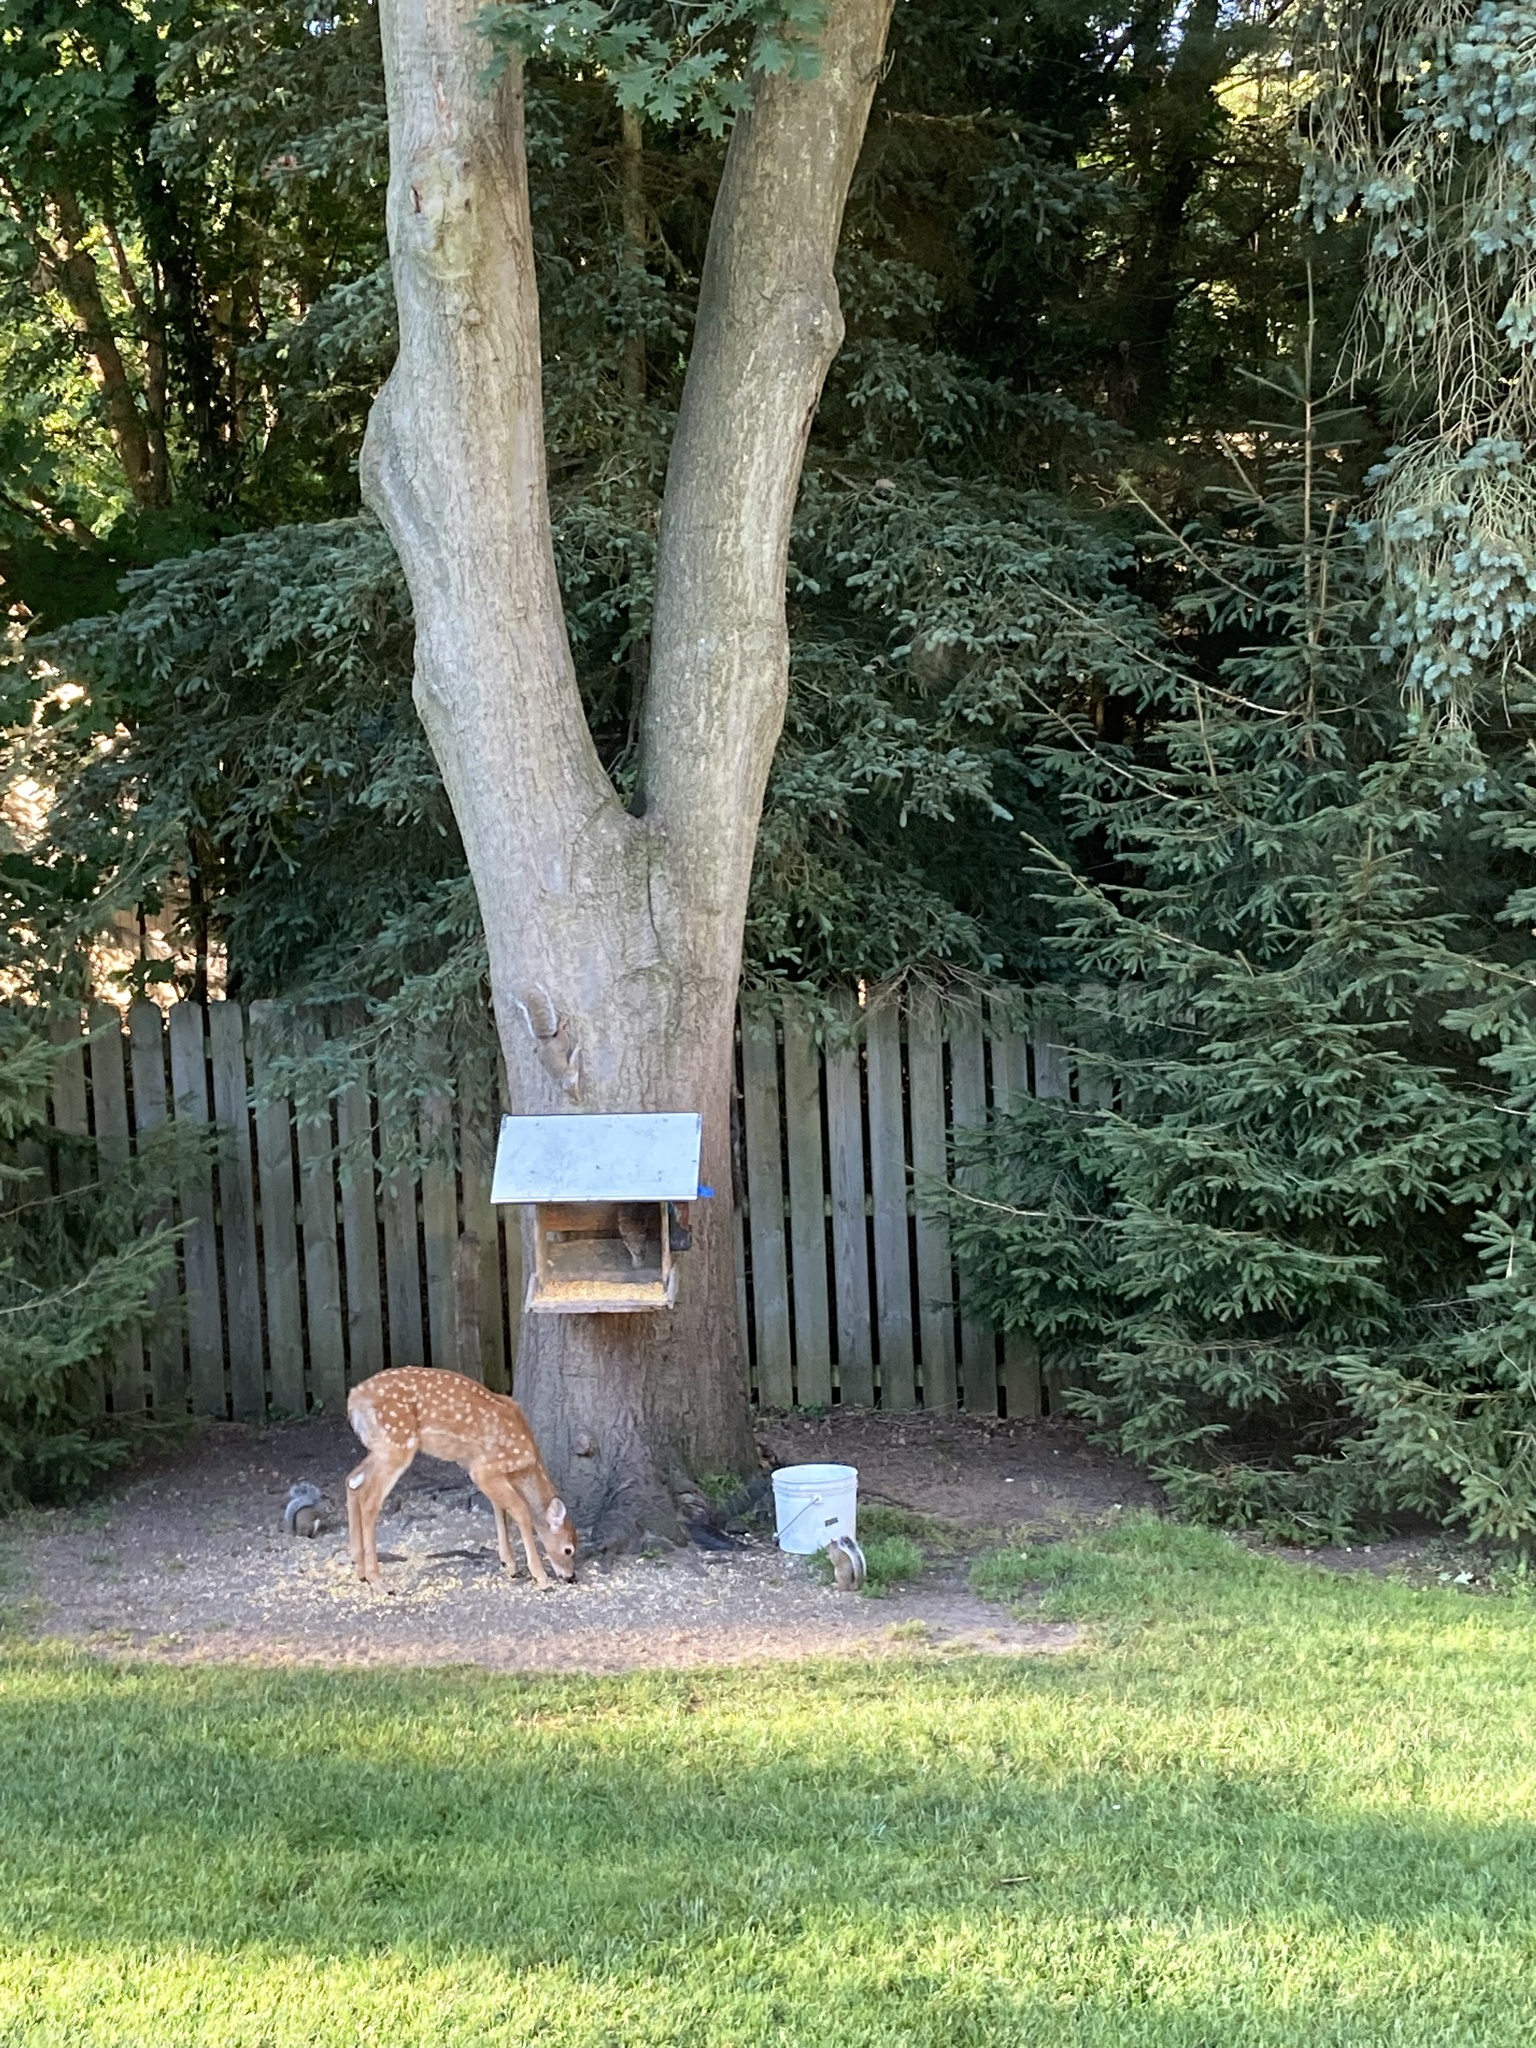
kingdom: Animalia
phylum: Chordata
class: Mammalia
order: Rodentia
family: Sciuridae
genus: Sciurus
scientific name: Sciurus carolinensis
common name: Eastern gray squirrel
